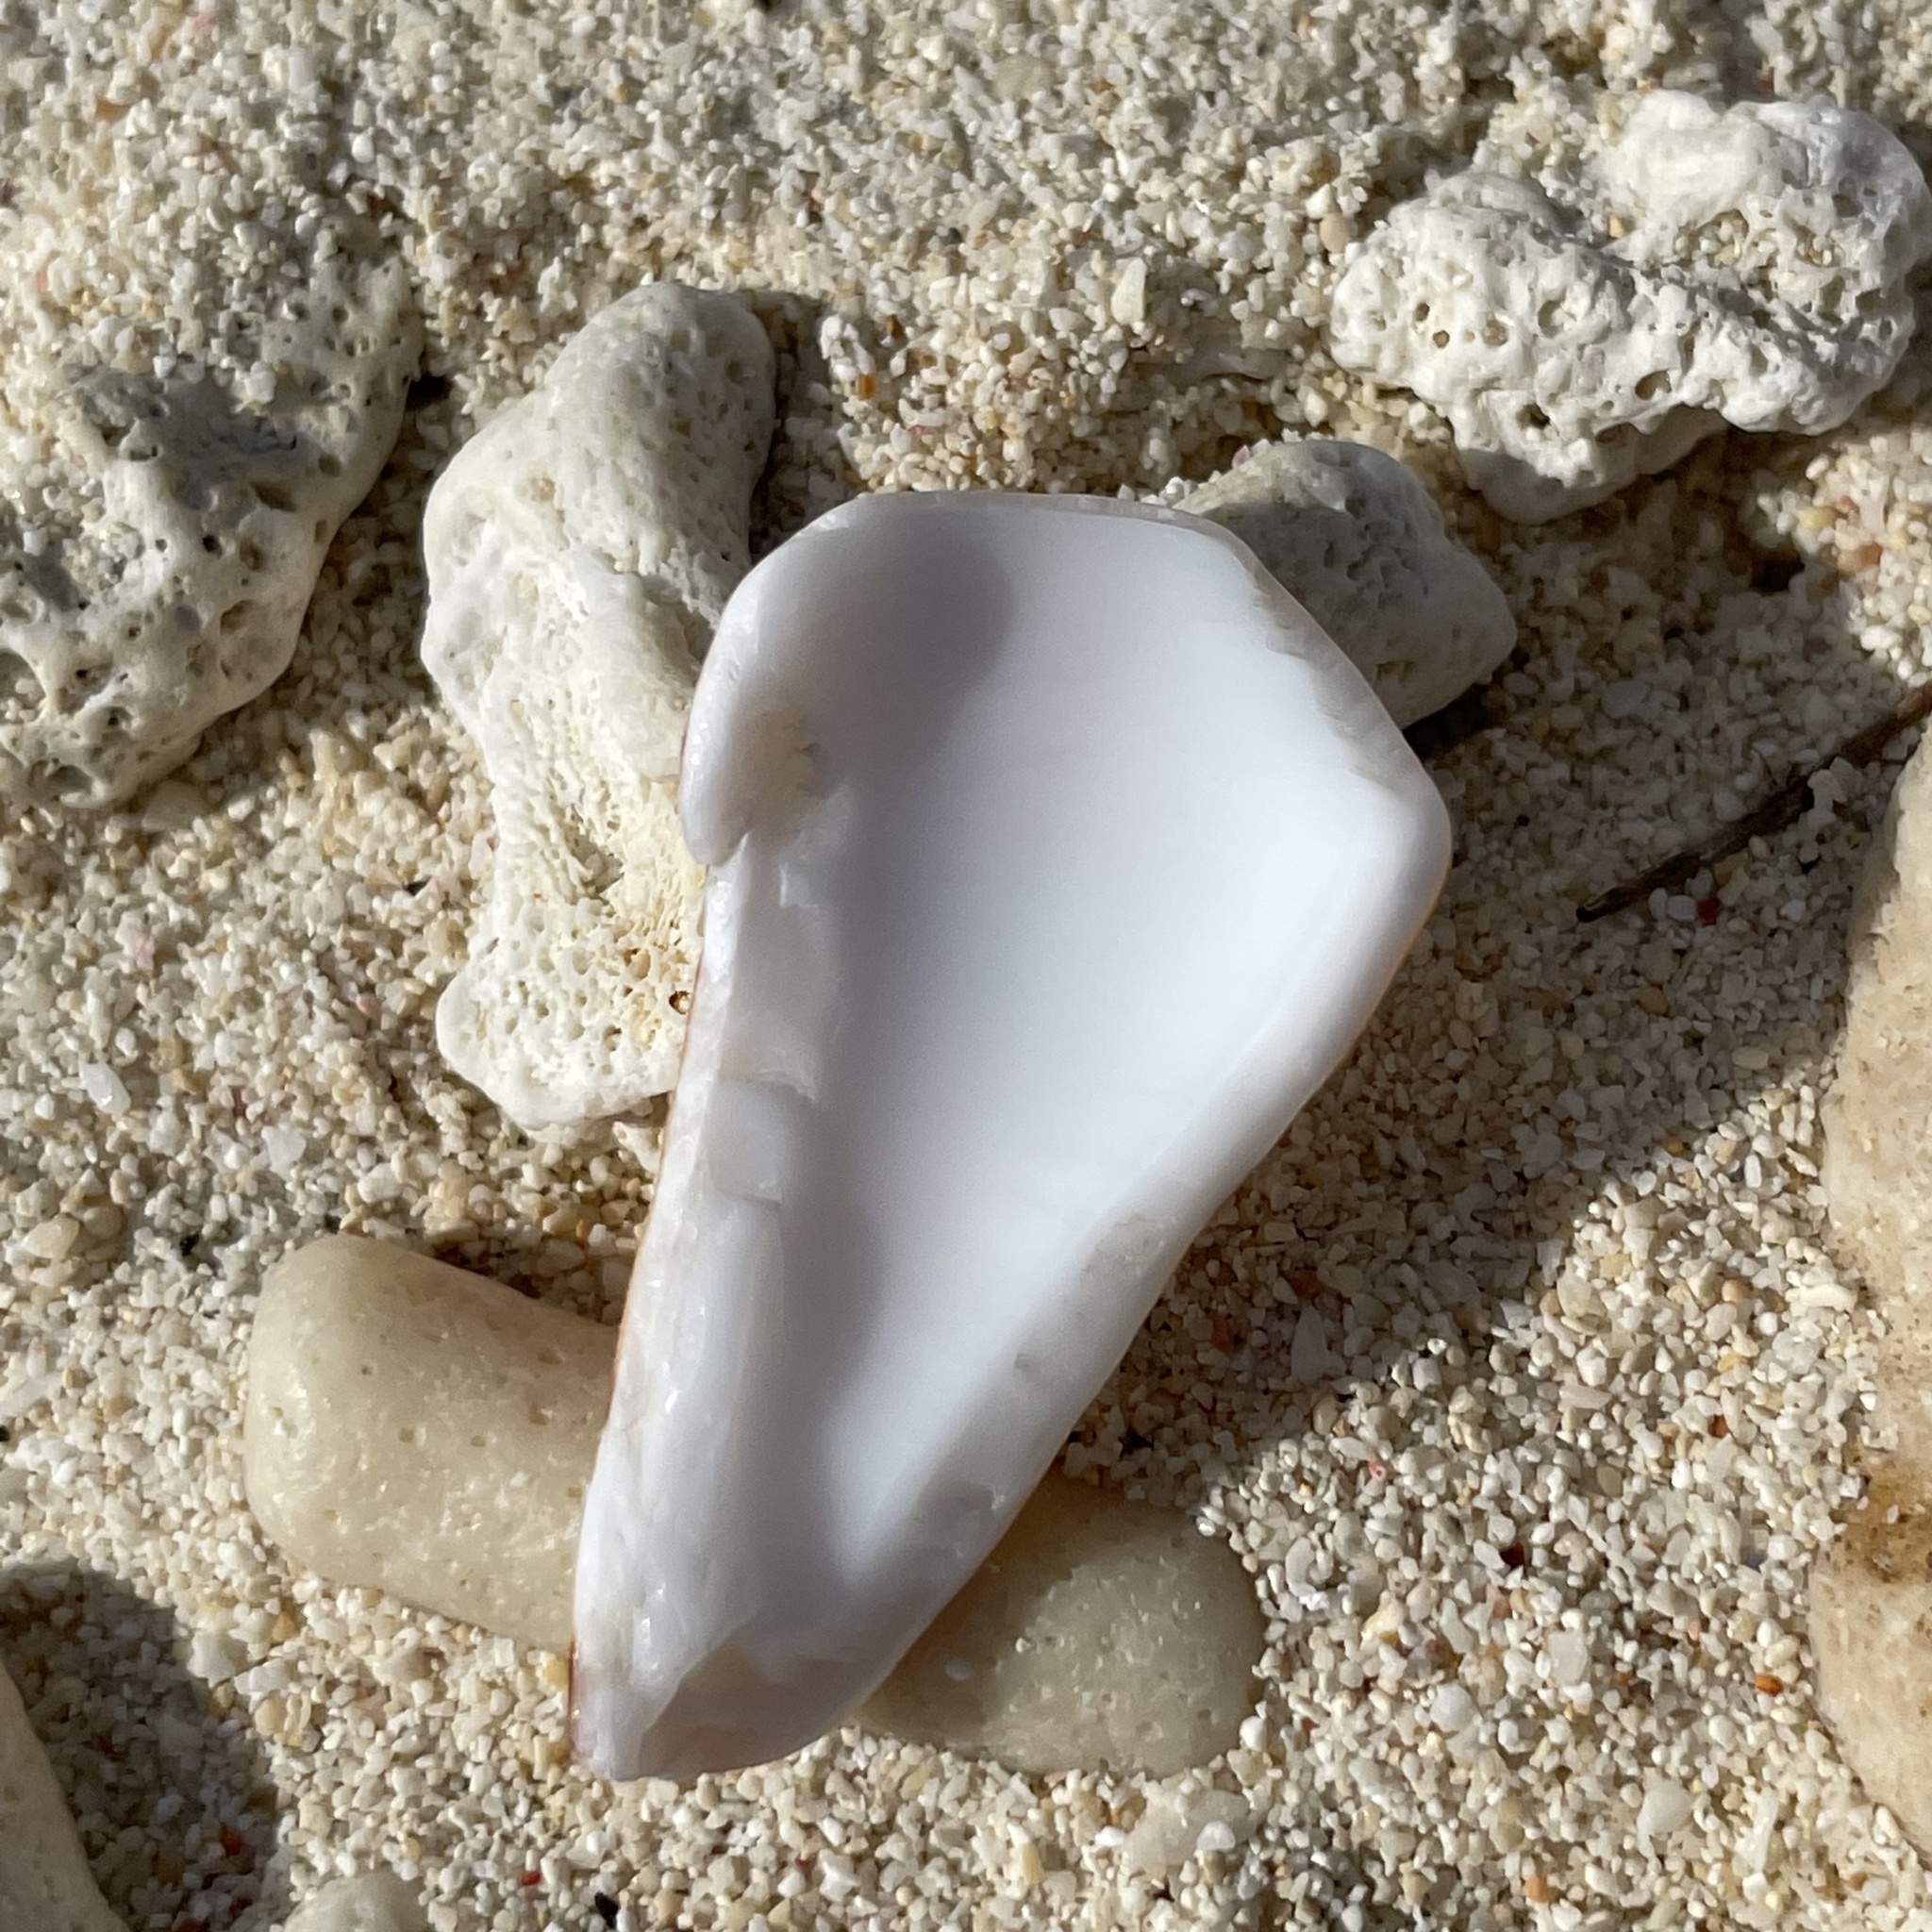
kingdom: Animalia
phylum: Mollusca
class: Gastropoda
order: Neogastropoda
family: Conidae
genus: Conus
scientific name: Conus generalis
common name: General cone
